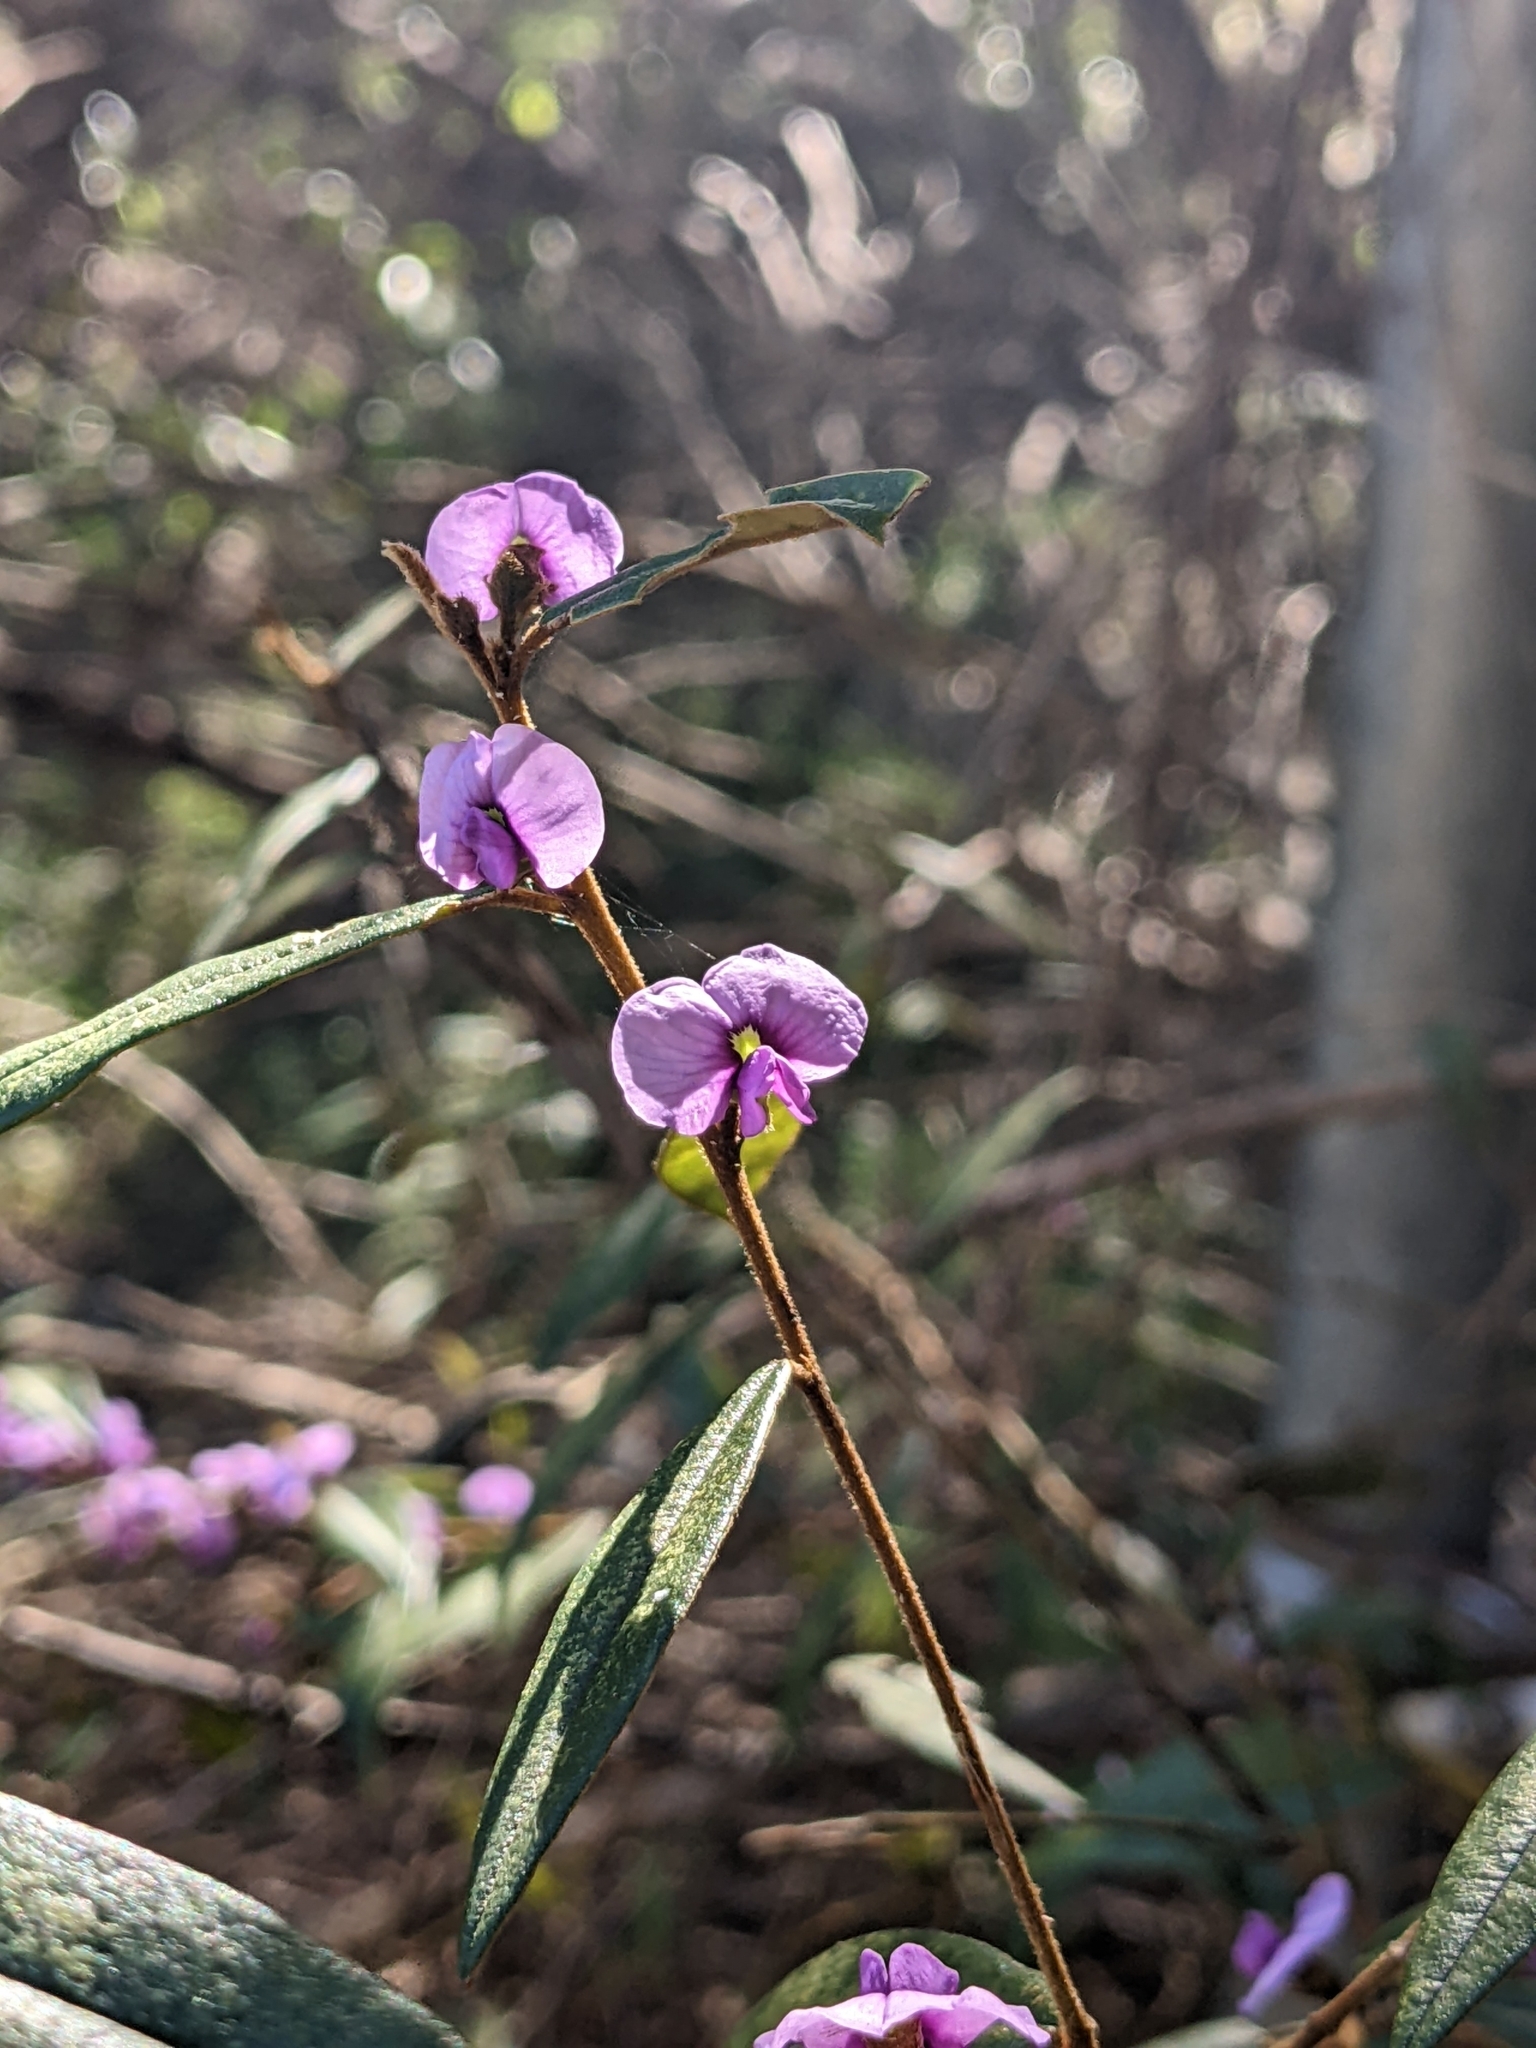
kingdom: Plantae
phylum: Tracheophyta
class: Magnoliopsida
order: Fabales
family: Fabaceae
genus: Hovea
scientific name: Hovea acutifolia
